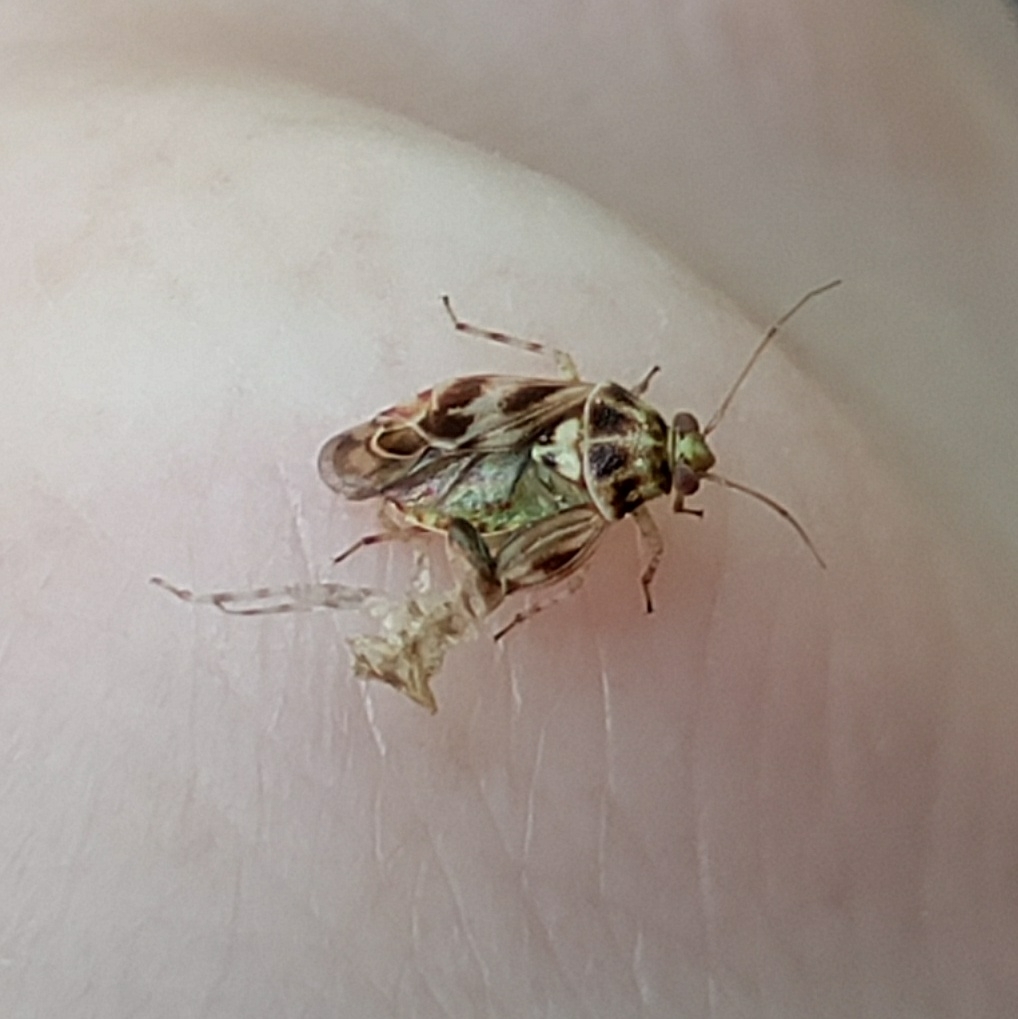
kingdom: Animalia
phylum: Arthropoda
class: Insecta
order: Hemiptera
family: Miridae
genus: Tropidosteptes
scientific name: Tropidosteptes quercicola
